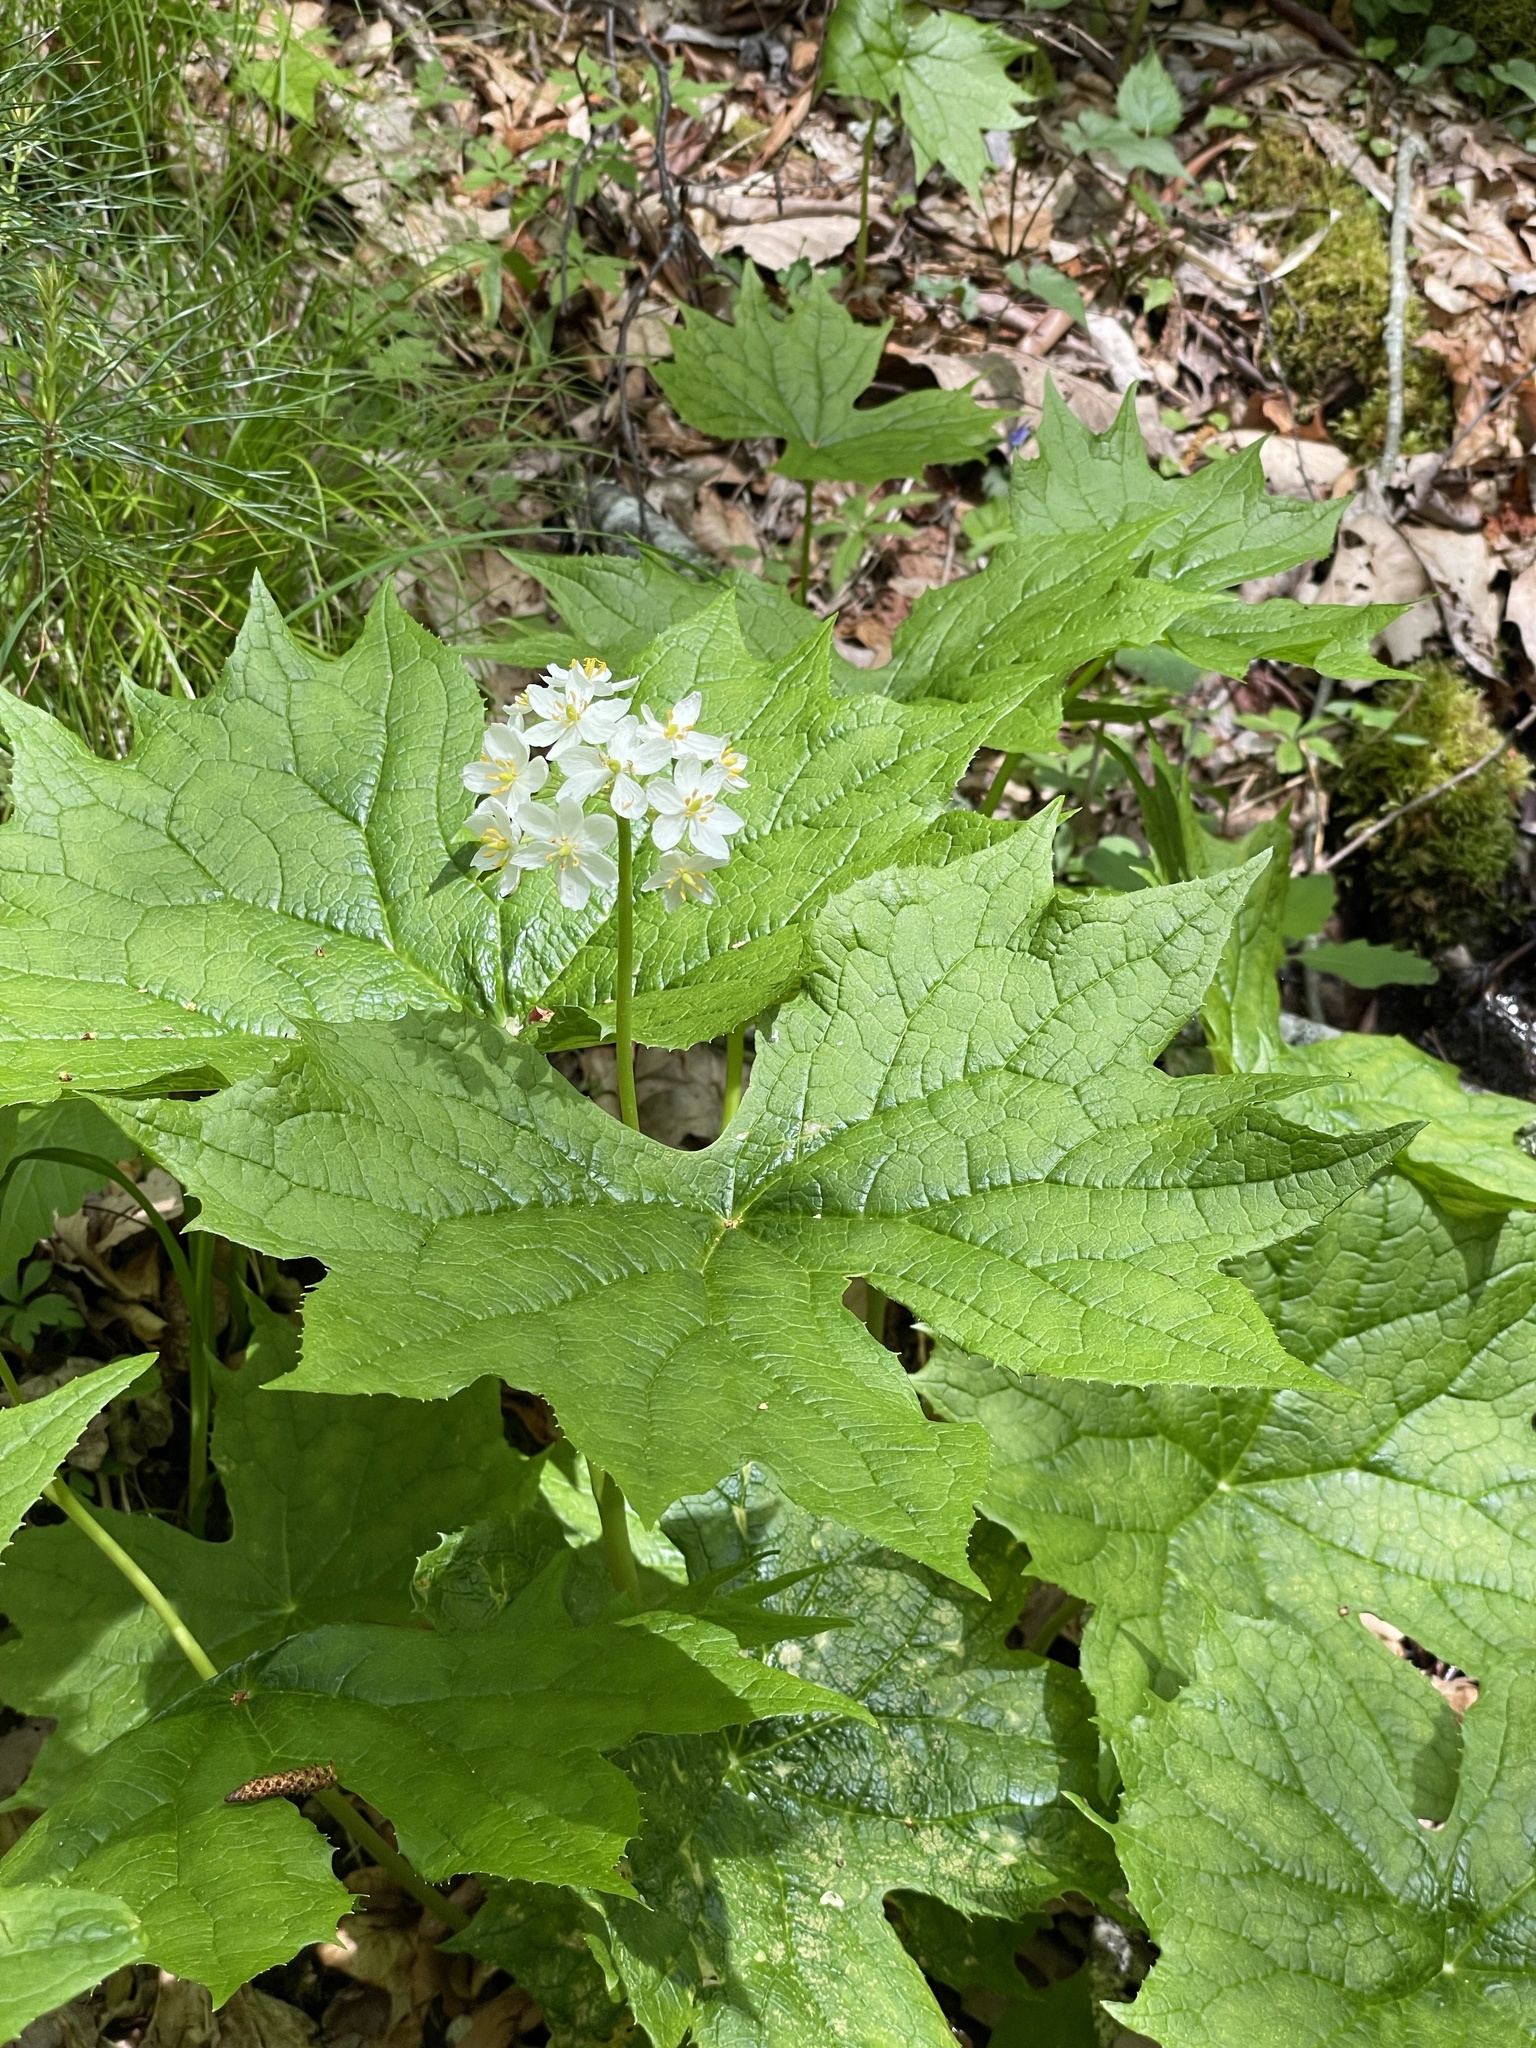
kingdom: Plantae
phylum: Tracheophyta
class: Magnoliopsida
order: Ranunculales
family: Berberidaceae
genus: Diphylleia
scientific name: Diphylleia cymosa
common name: Umbrella-leaf
